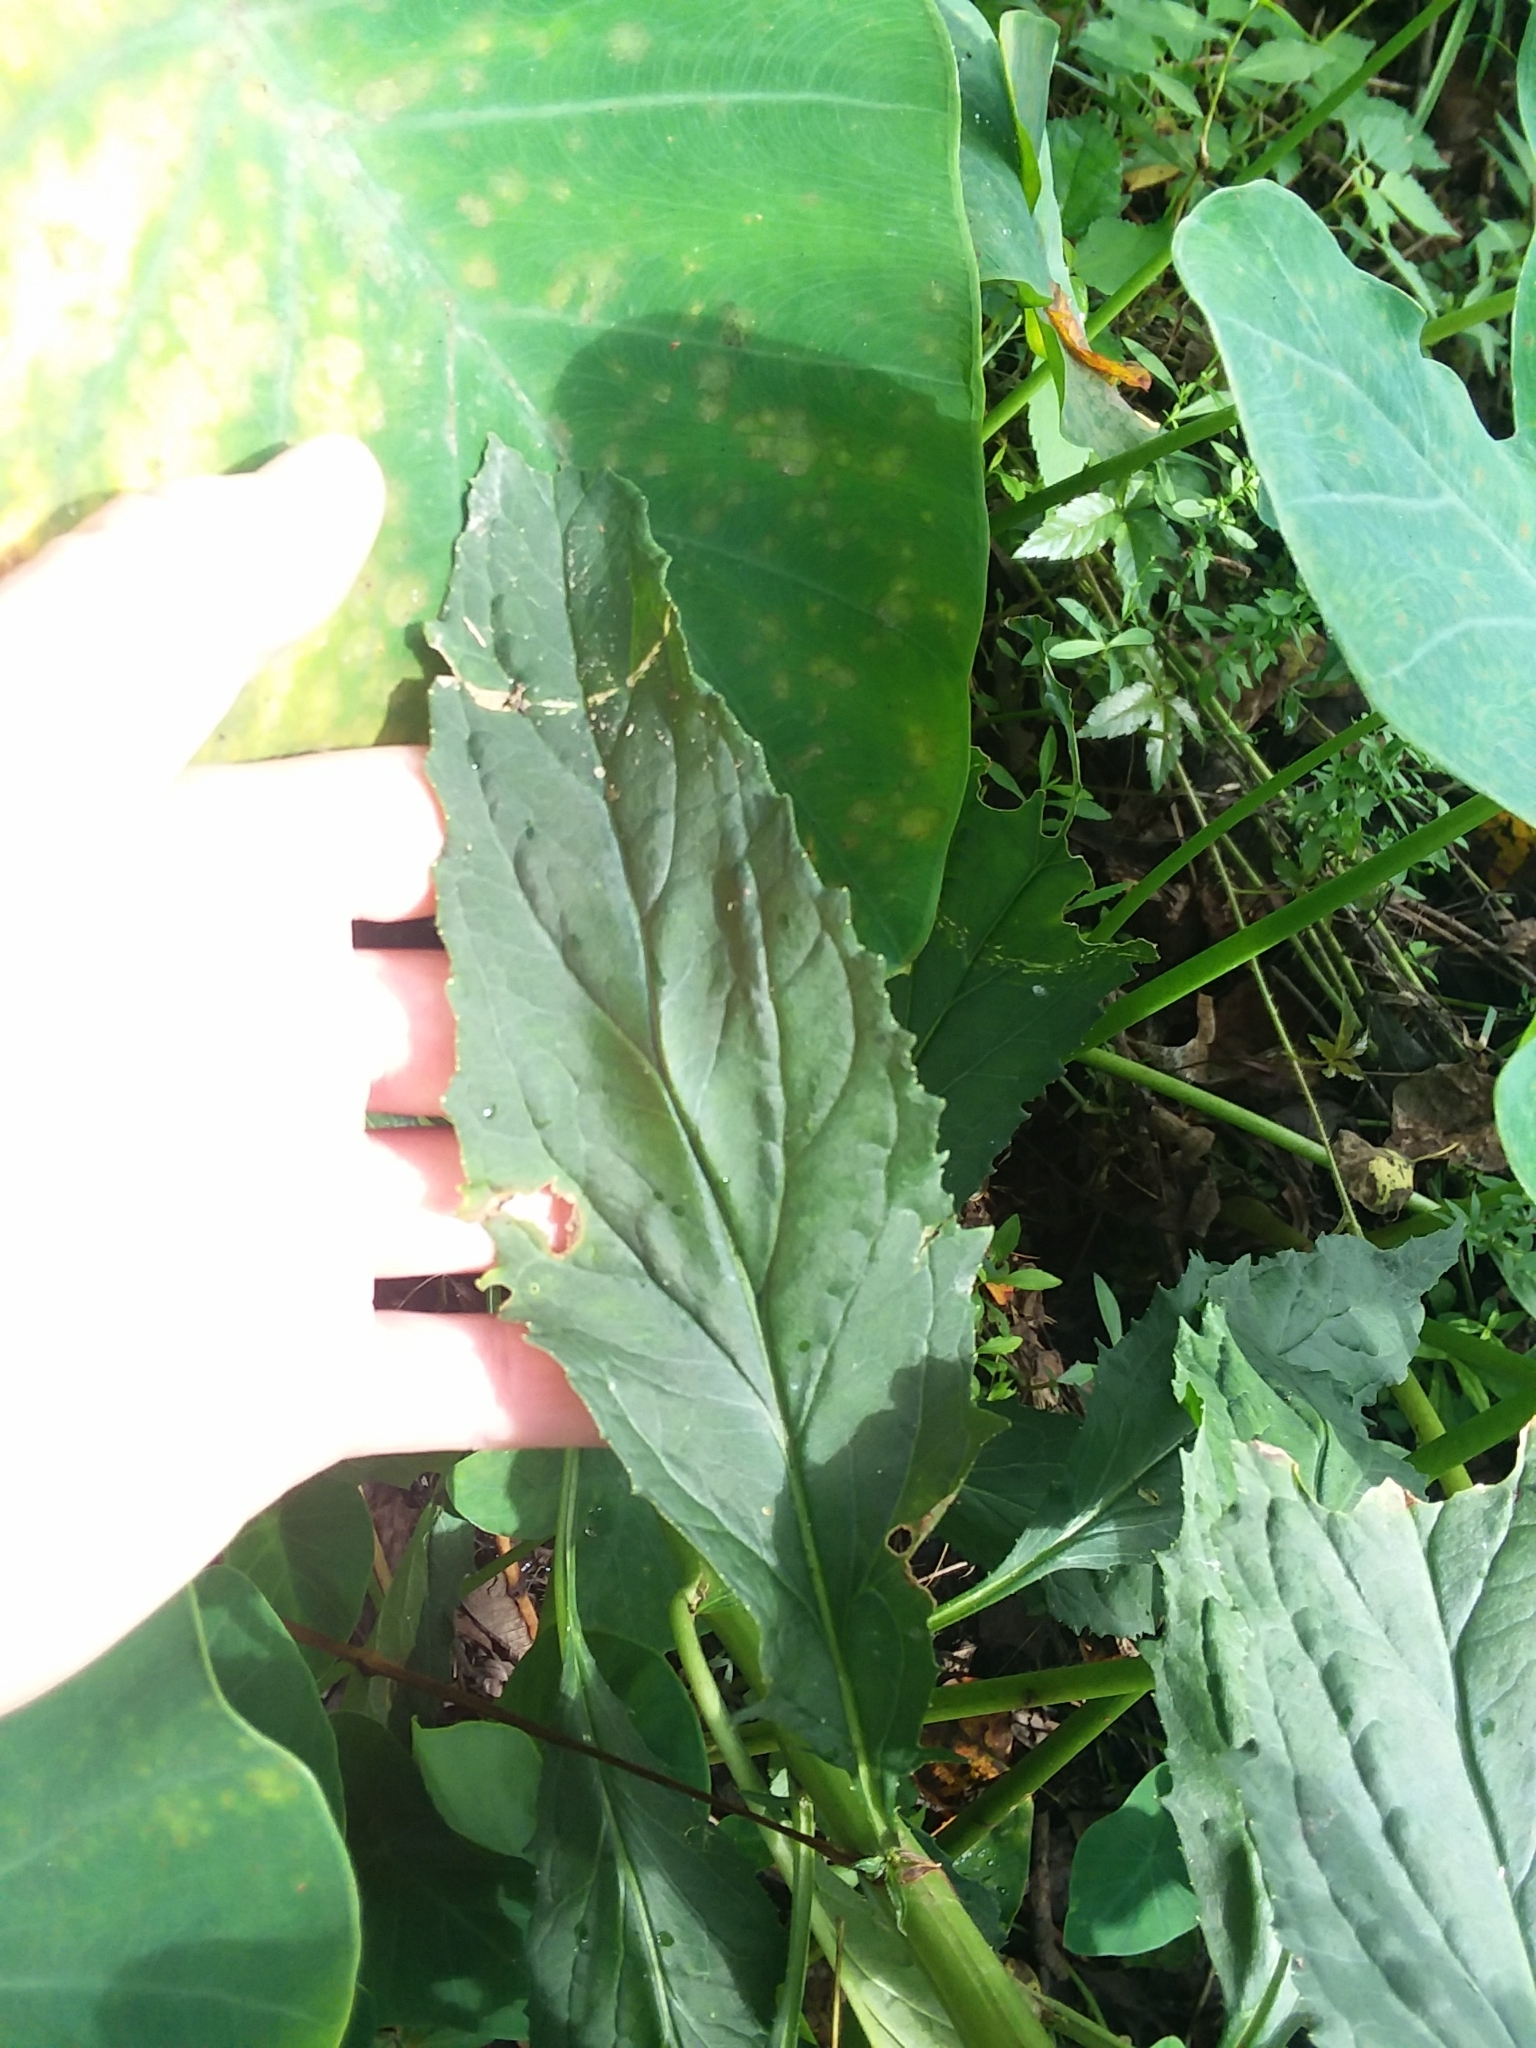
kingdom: Plantae
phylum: Tracheophyta
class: Magnoliopsida
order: Asterales
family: Campanulaceae
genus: Lobelia
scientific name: Lobelia cardinalis
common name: Cardinal flower
